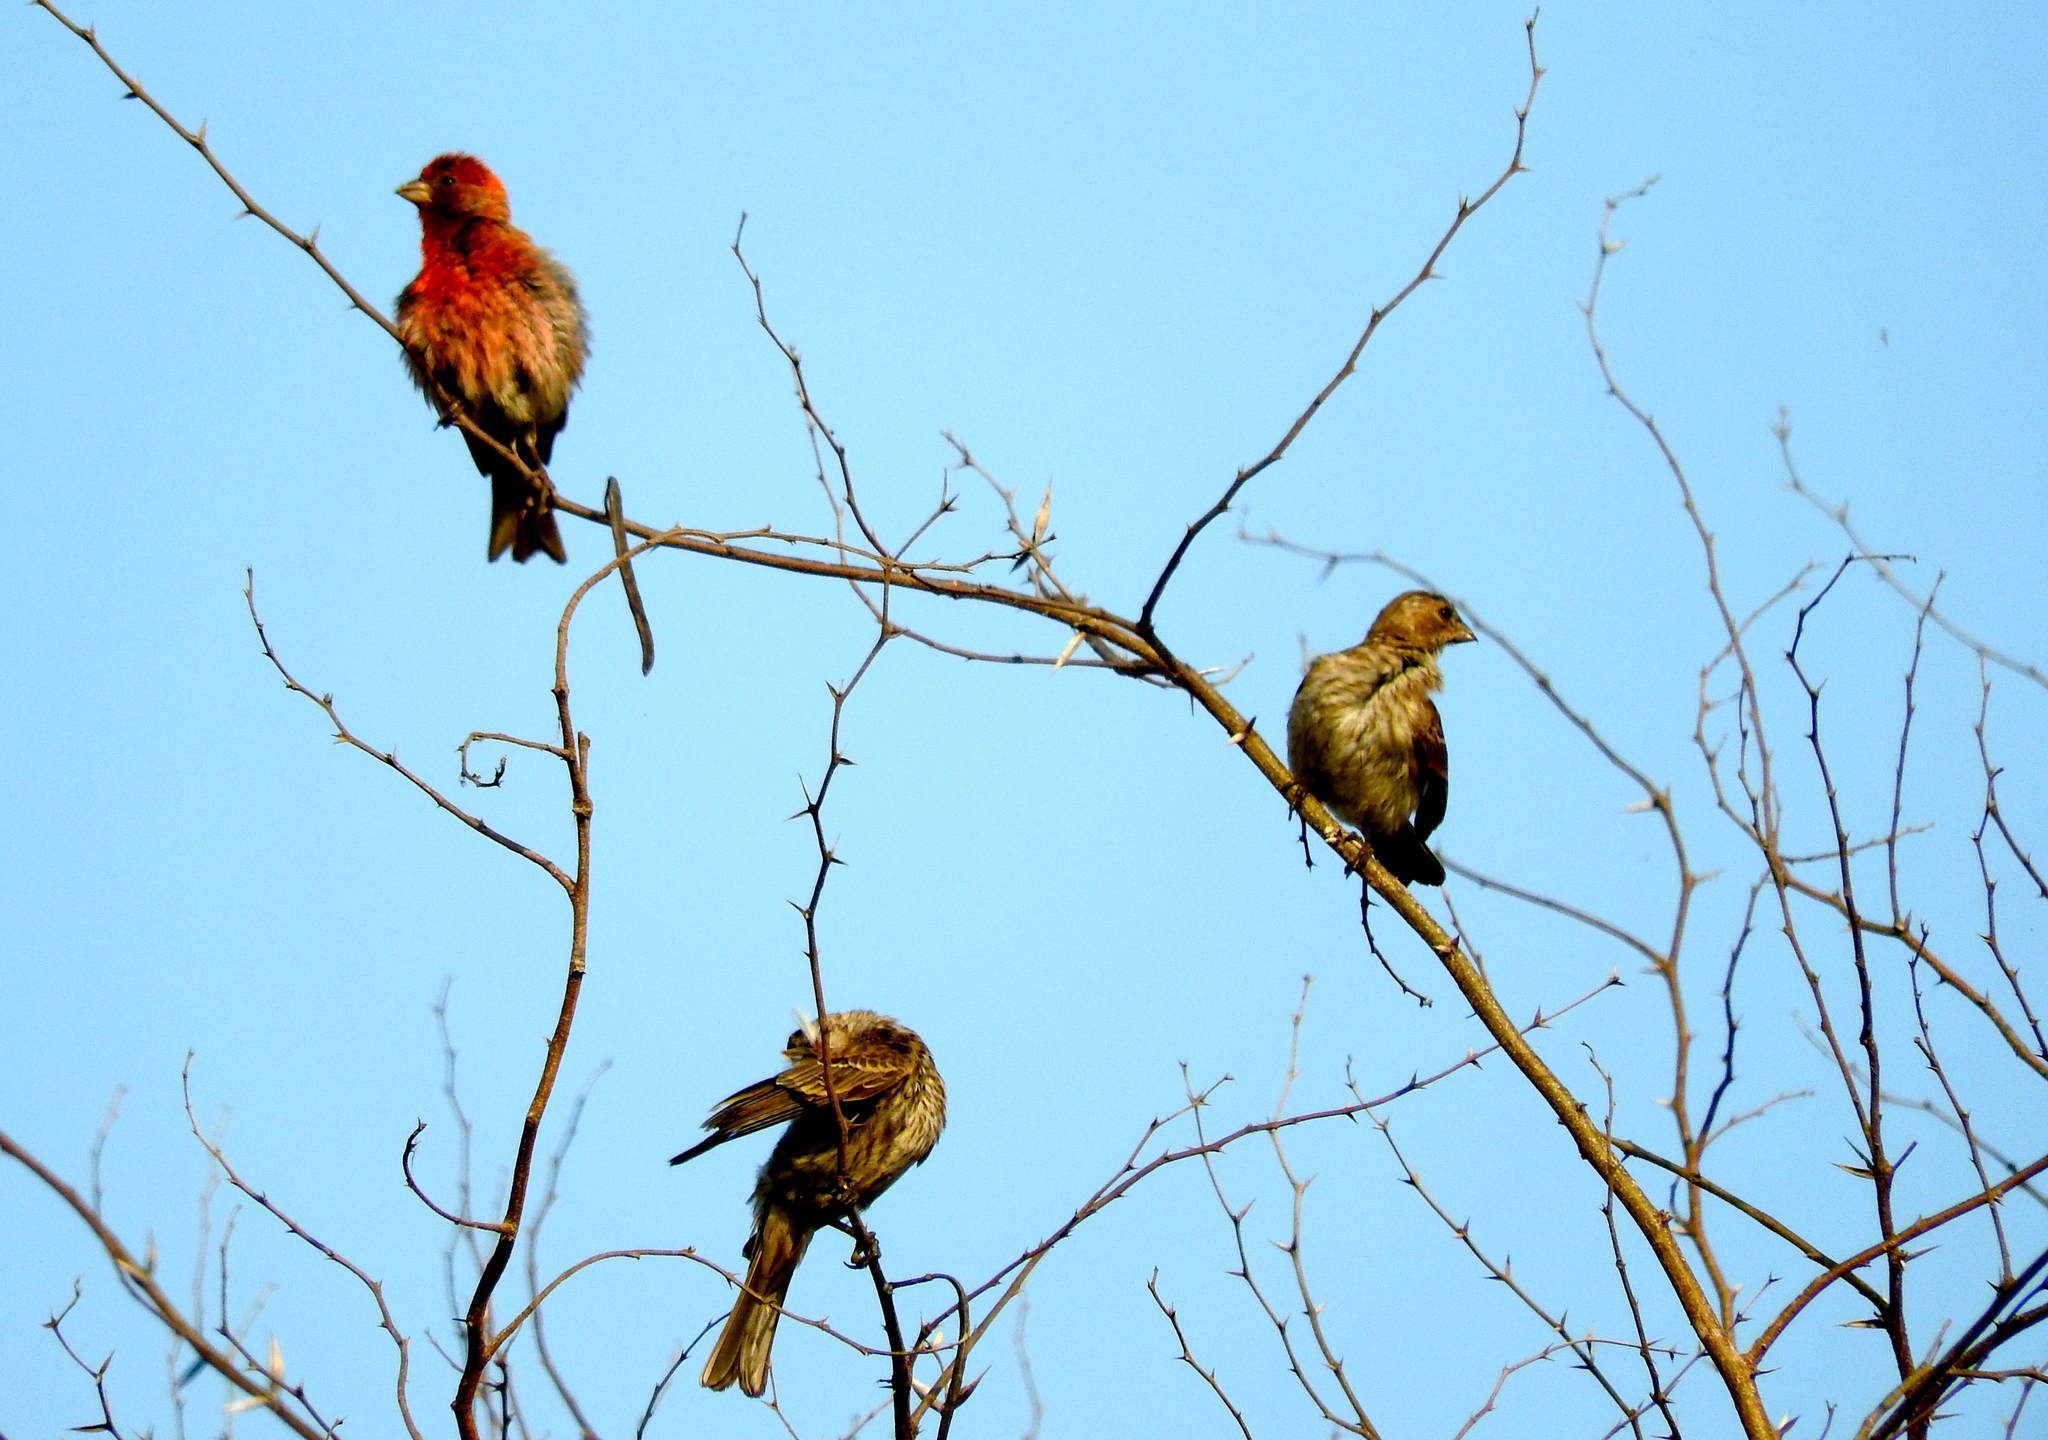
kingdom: Animalia
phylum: Chordata
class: Aves
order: Passeriformes
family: Fringillidae
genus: Haemorhous
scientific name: Haemorhous mexicanus
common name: House finch
